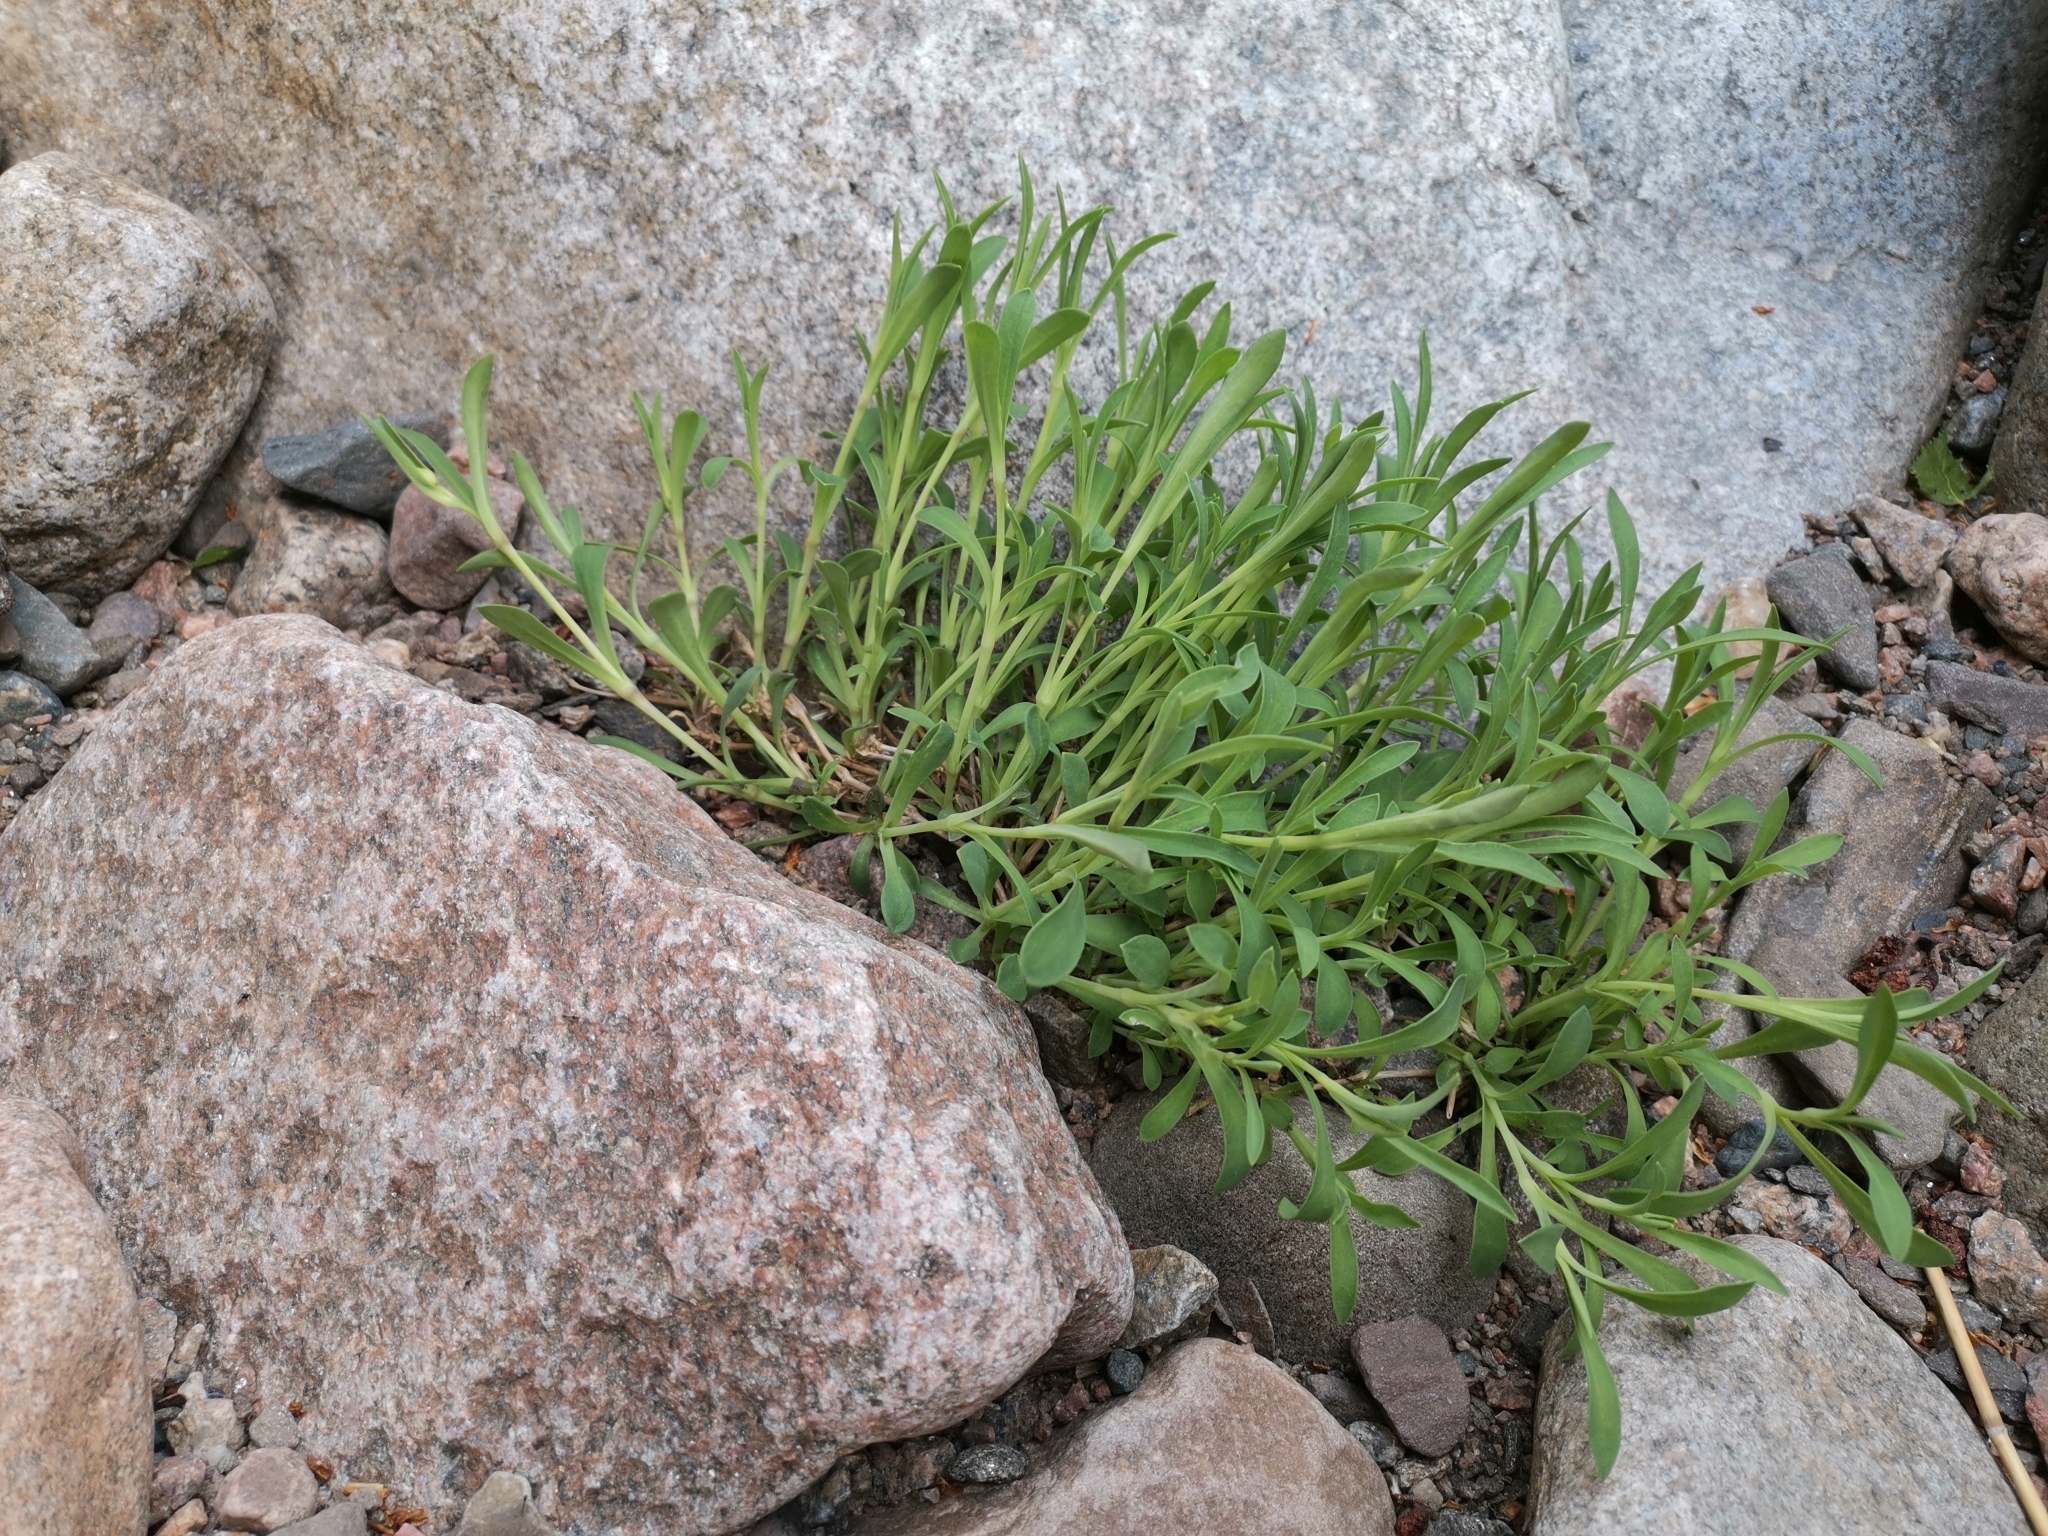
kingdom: Plantae
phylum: Tracheophyta
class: Magnoliopsida
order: Caryophyllales
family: Caryophyllaceae
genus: Silene
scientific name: Silene uniflora
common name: Sea campion
